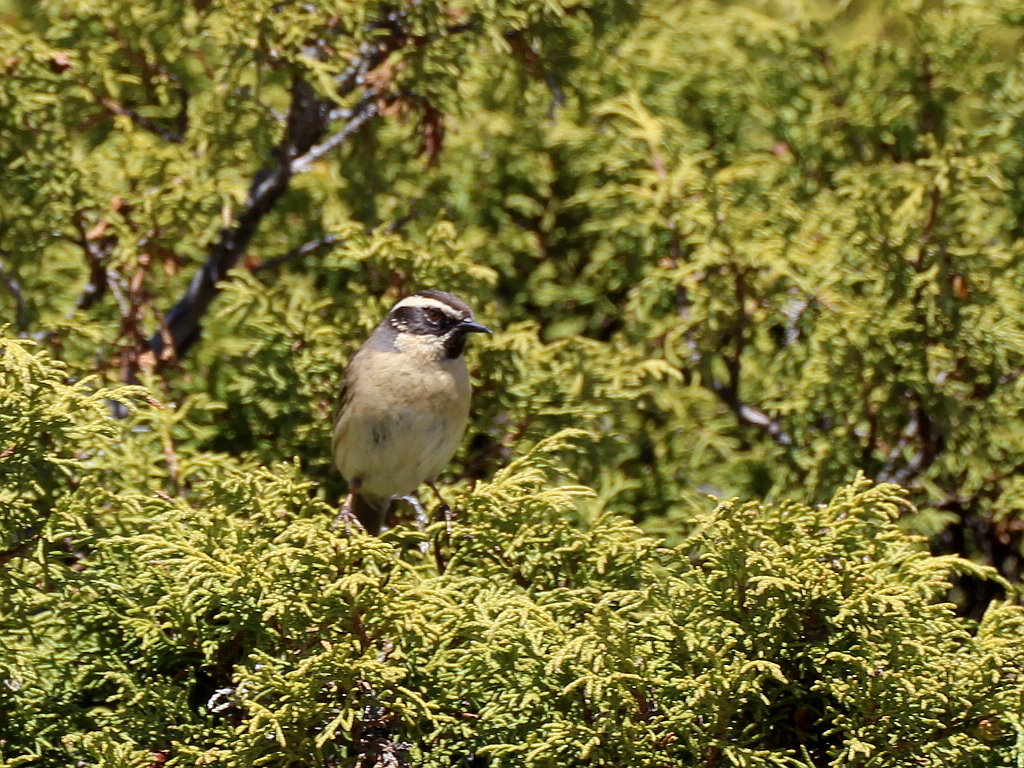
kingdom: Animalia
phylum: Chordata
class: Aves
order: Passeriformes
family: Prunellidae
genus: Prunella
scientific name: Prunella atrogularis
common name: Black-throated accentor
